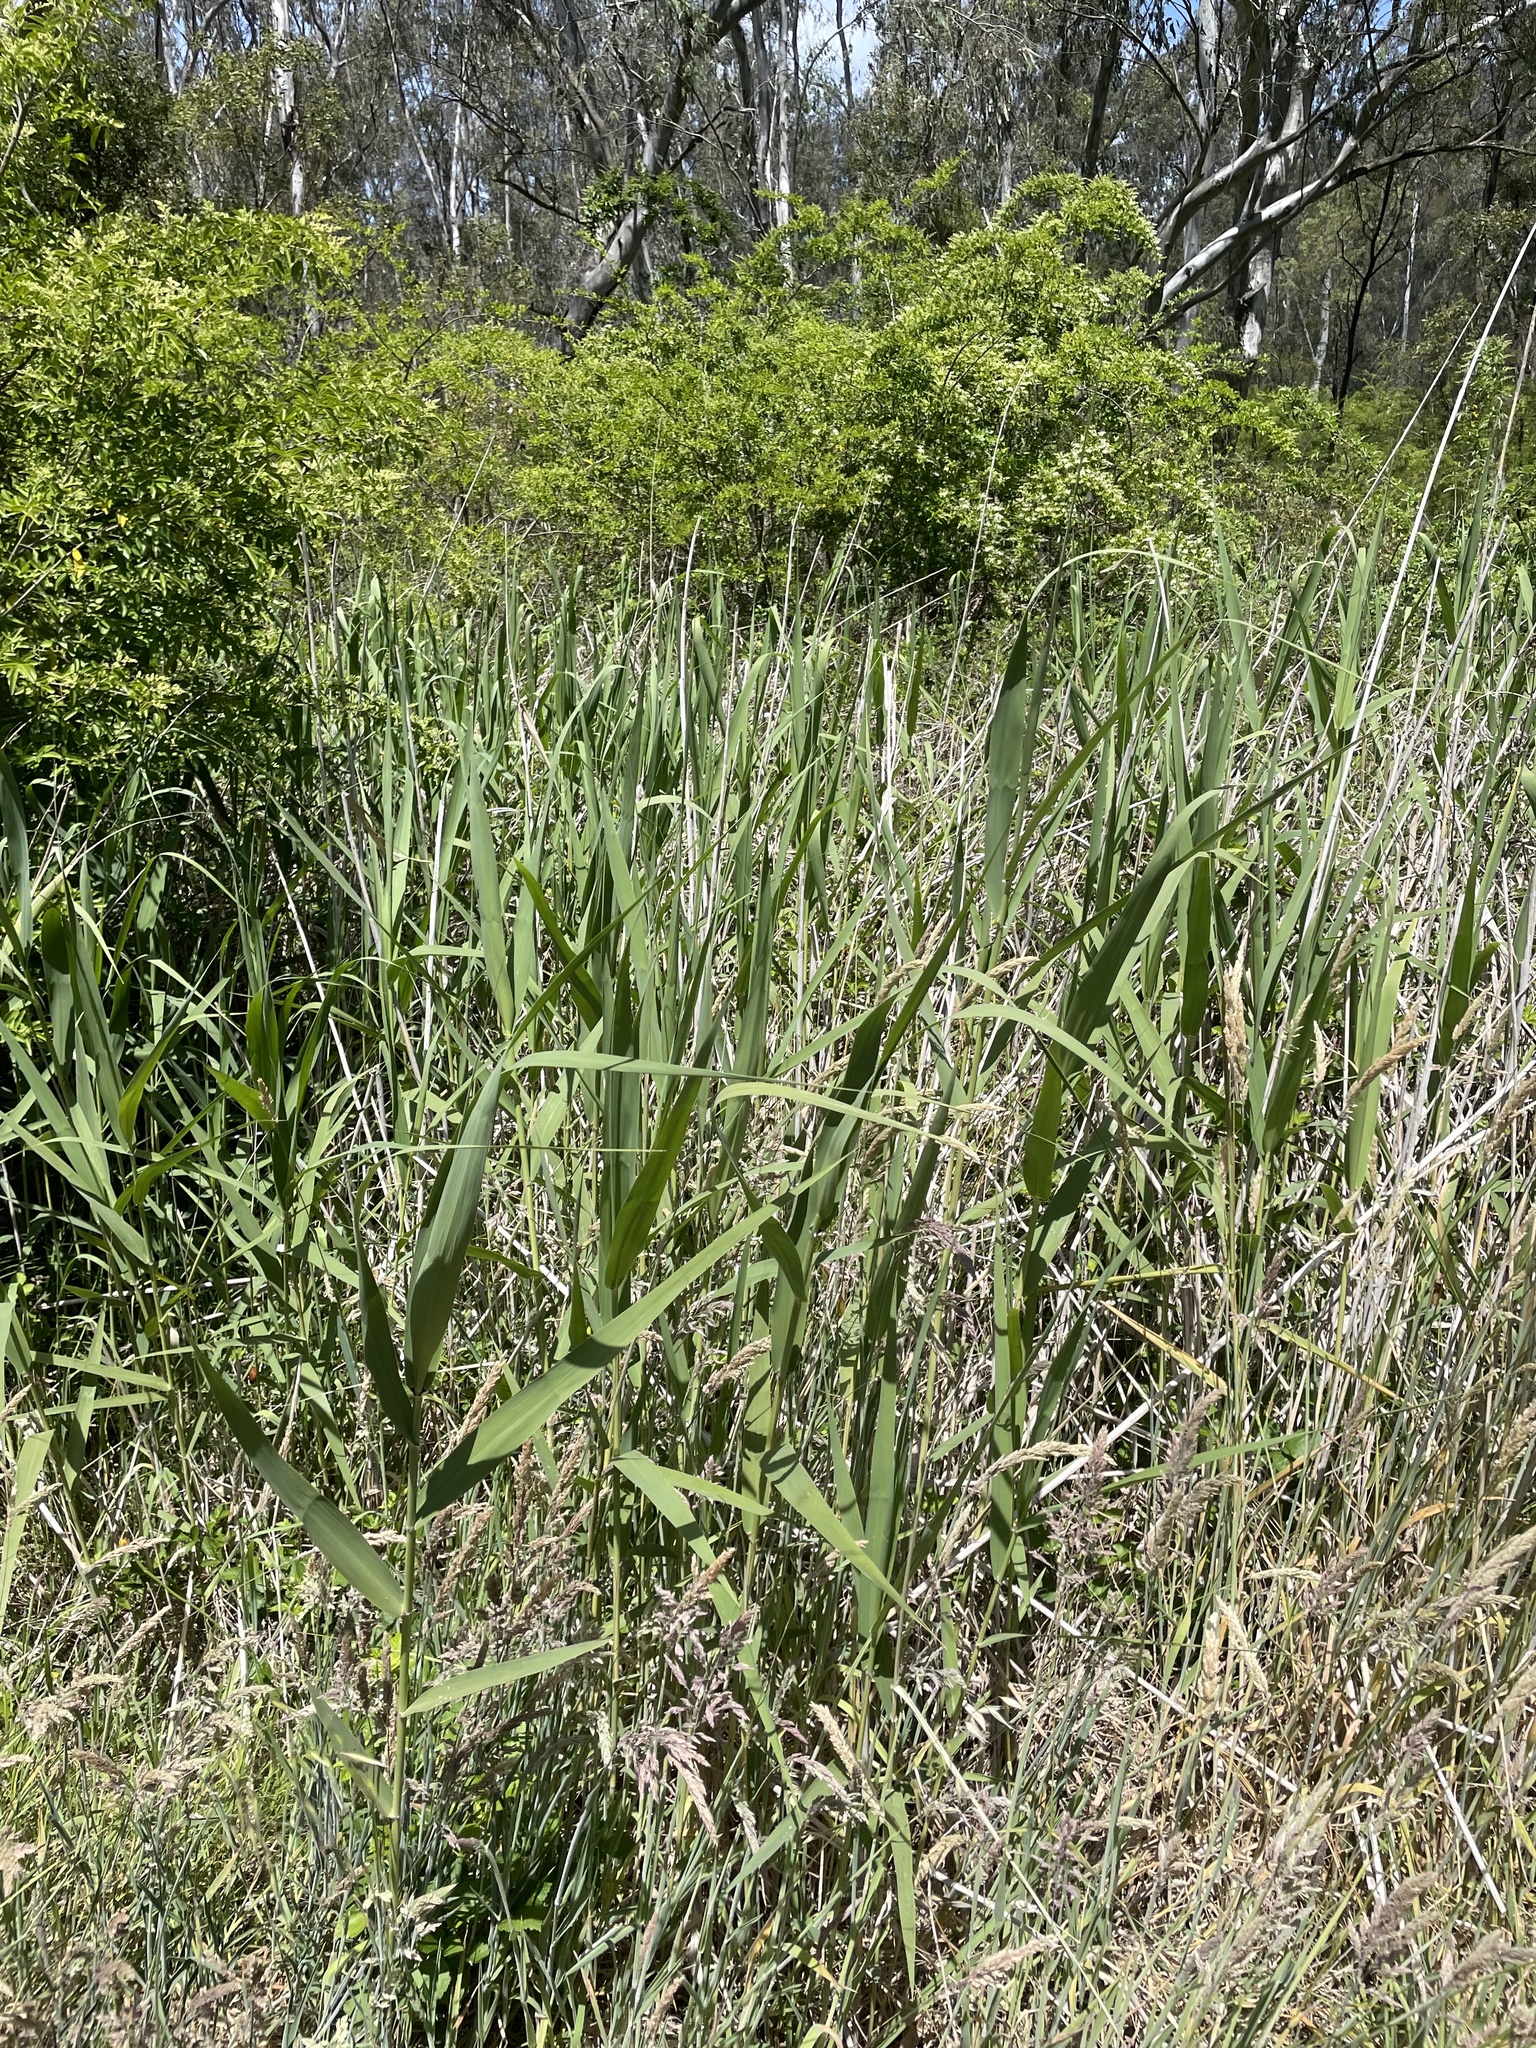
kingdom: Plantae
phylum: Tracheophyta
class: Liliopsida
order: Poales
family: Poaceae
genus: Phragmites
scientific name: Phragmites australis
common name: Common reed
